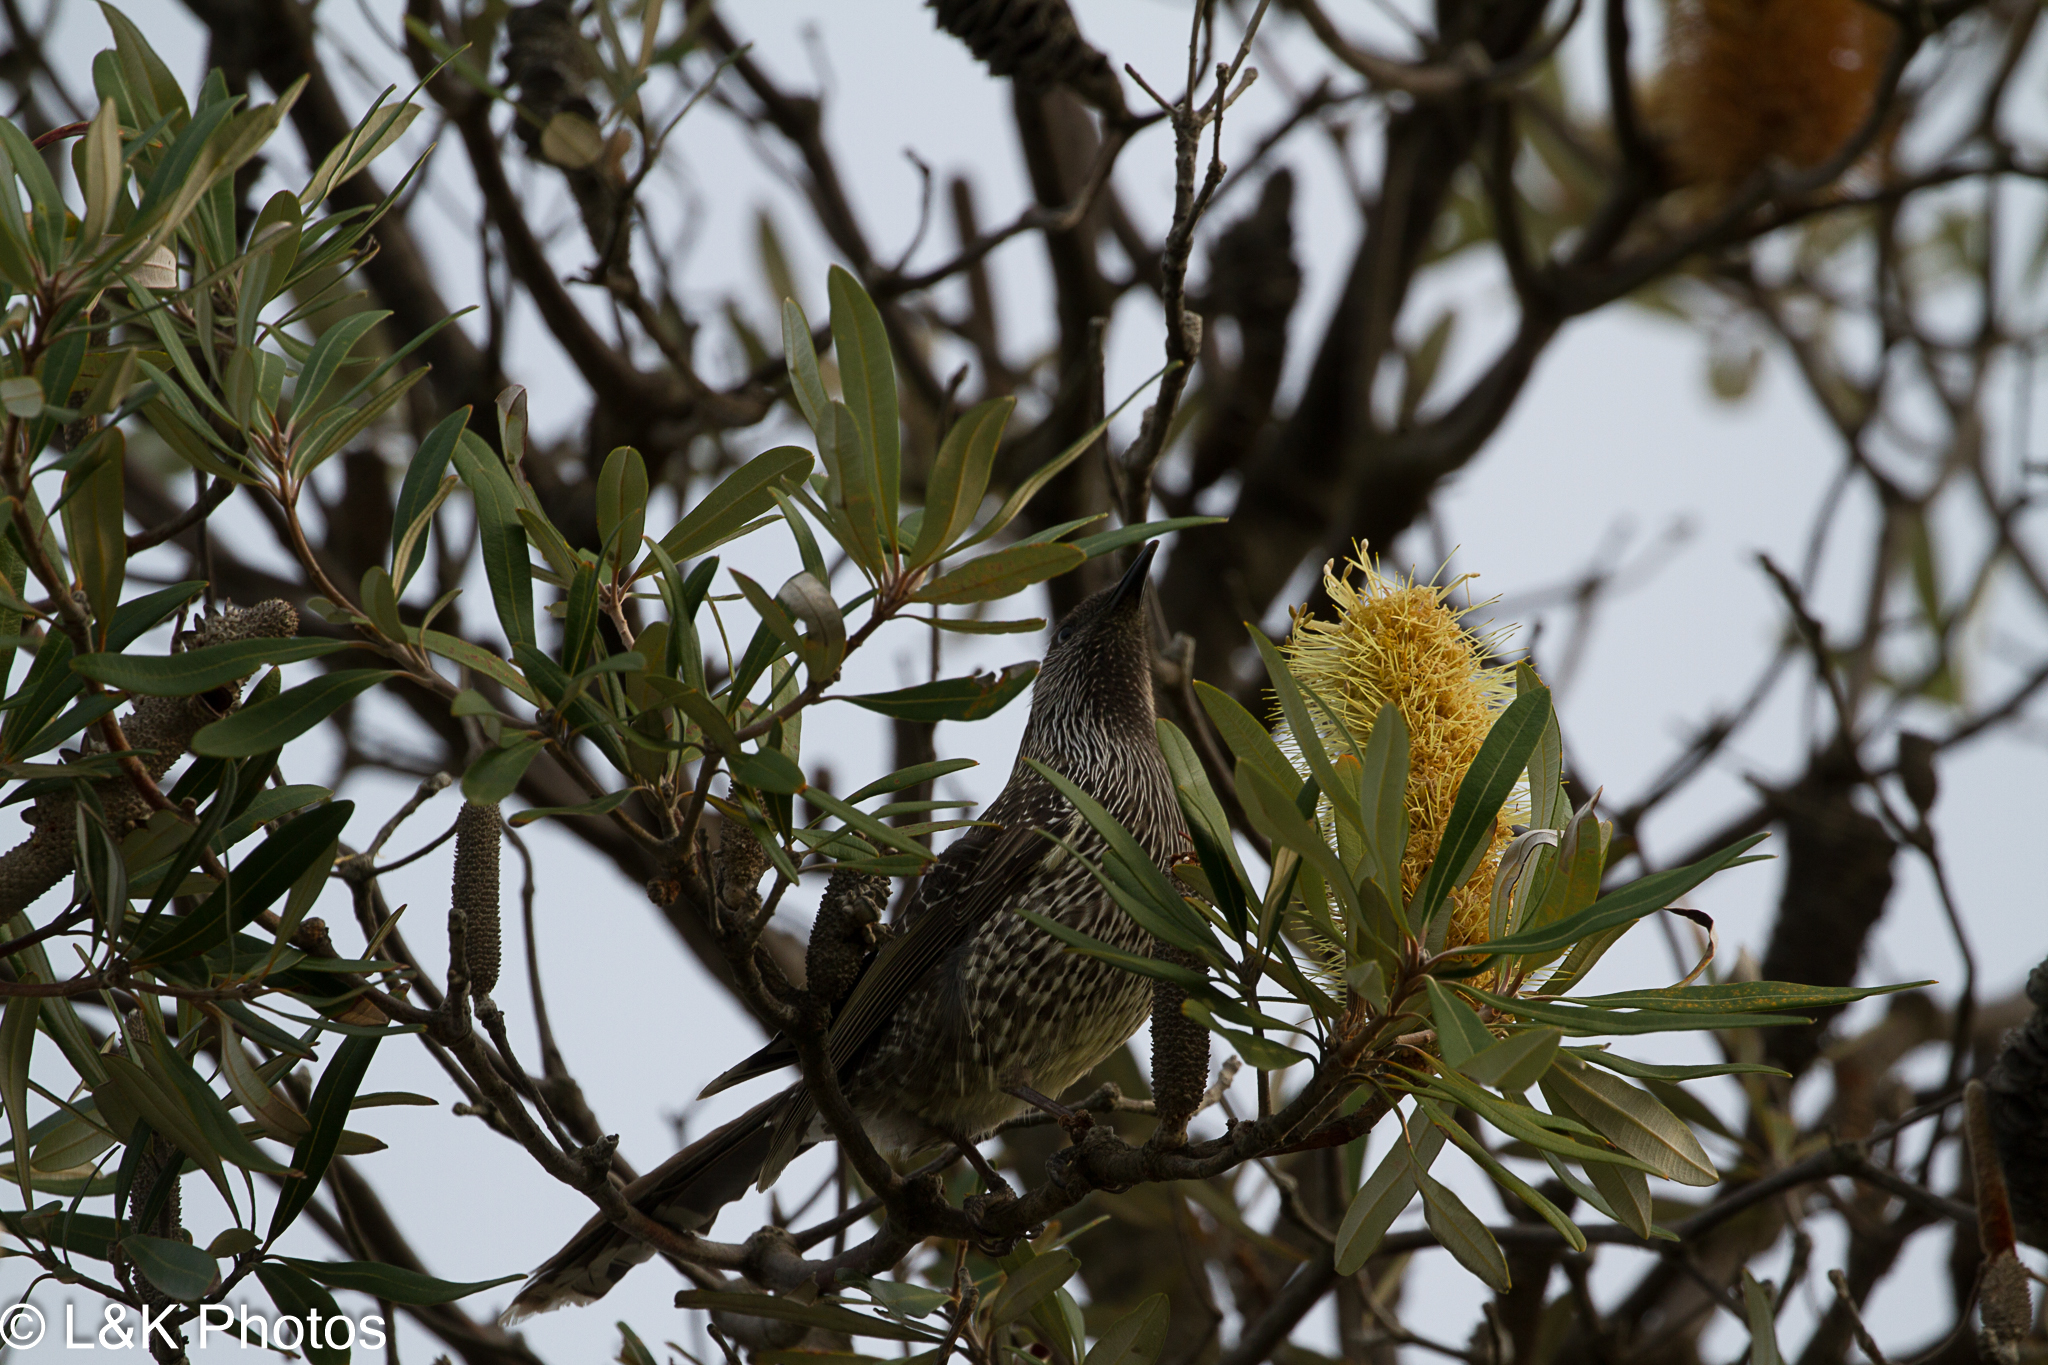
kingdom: Animalia
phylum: Chordata
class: Aves
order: Passeriformes
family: Meliphagidae
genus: Anthochaera
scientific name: Anthochaera carunculata
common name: Red wattlebird
